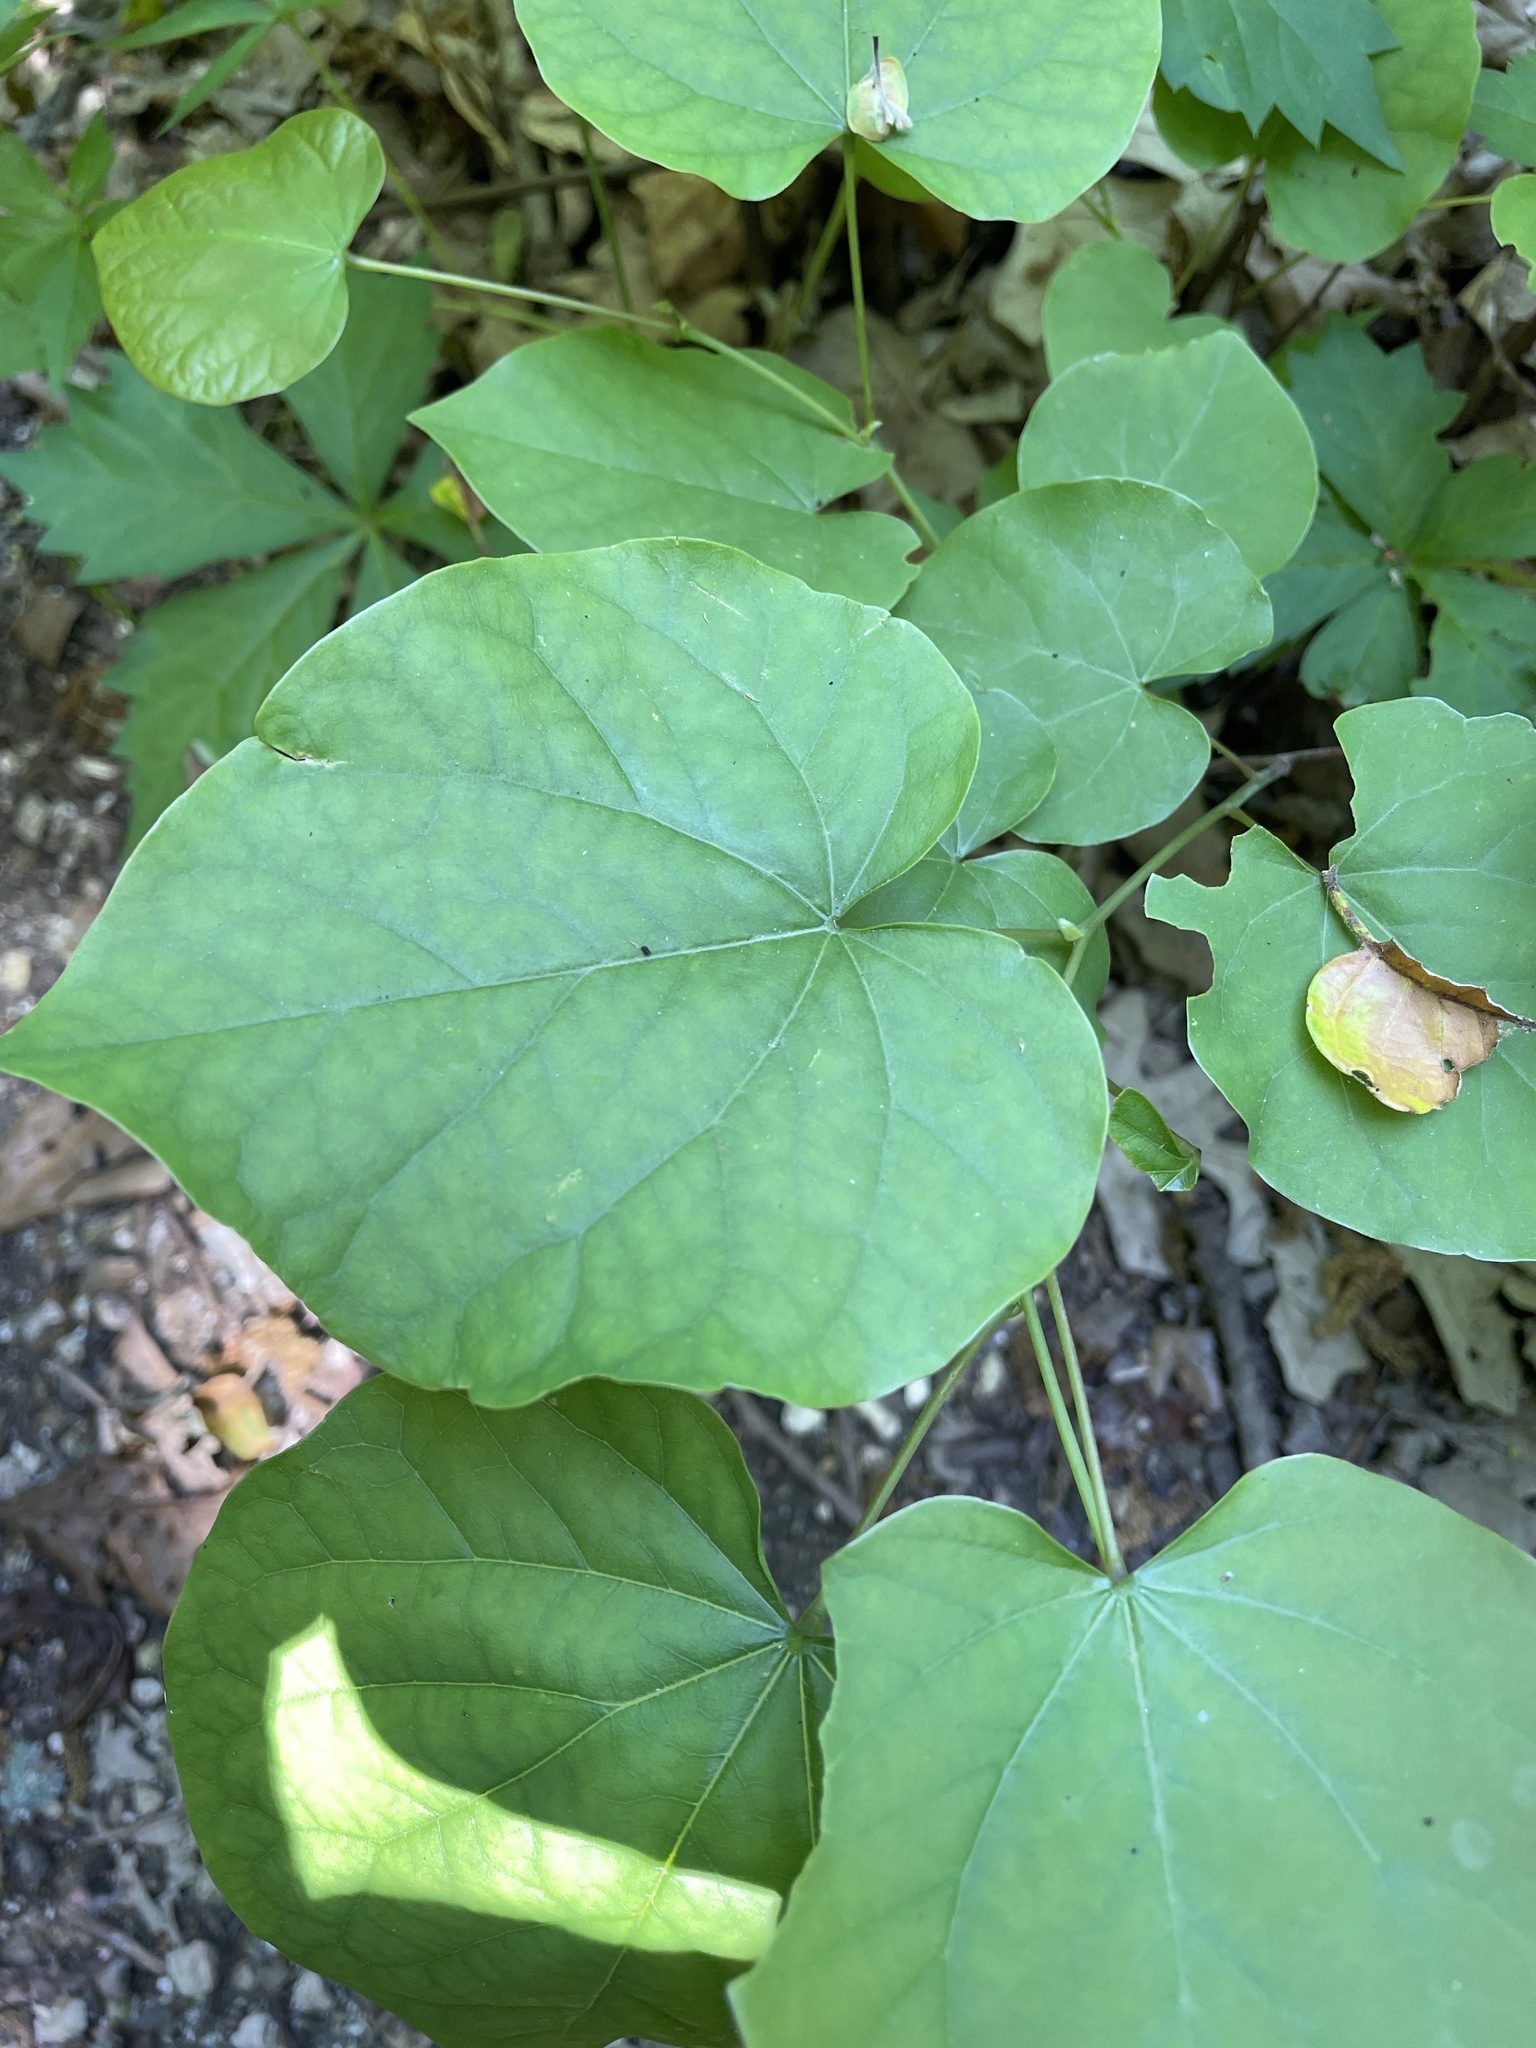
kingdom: Plantae
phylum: Tracheophyta
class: Magnoliopsida
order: Fabales
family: Fabaceae
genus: Cercis
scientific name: Cercis canadensis
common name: Eastern redbud
